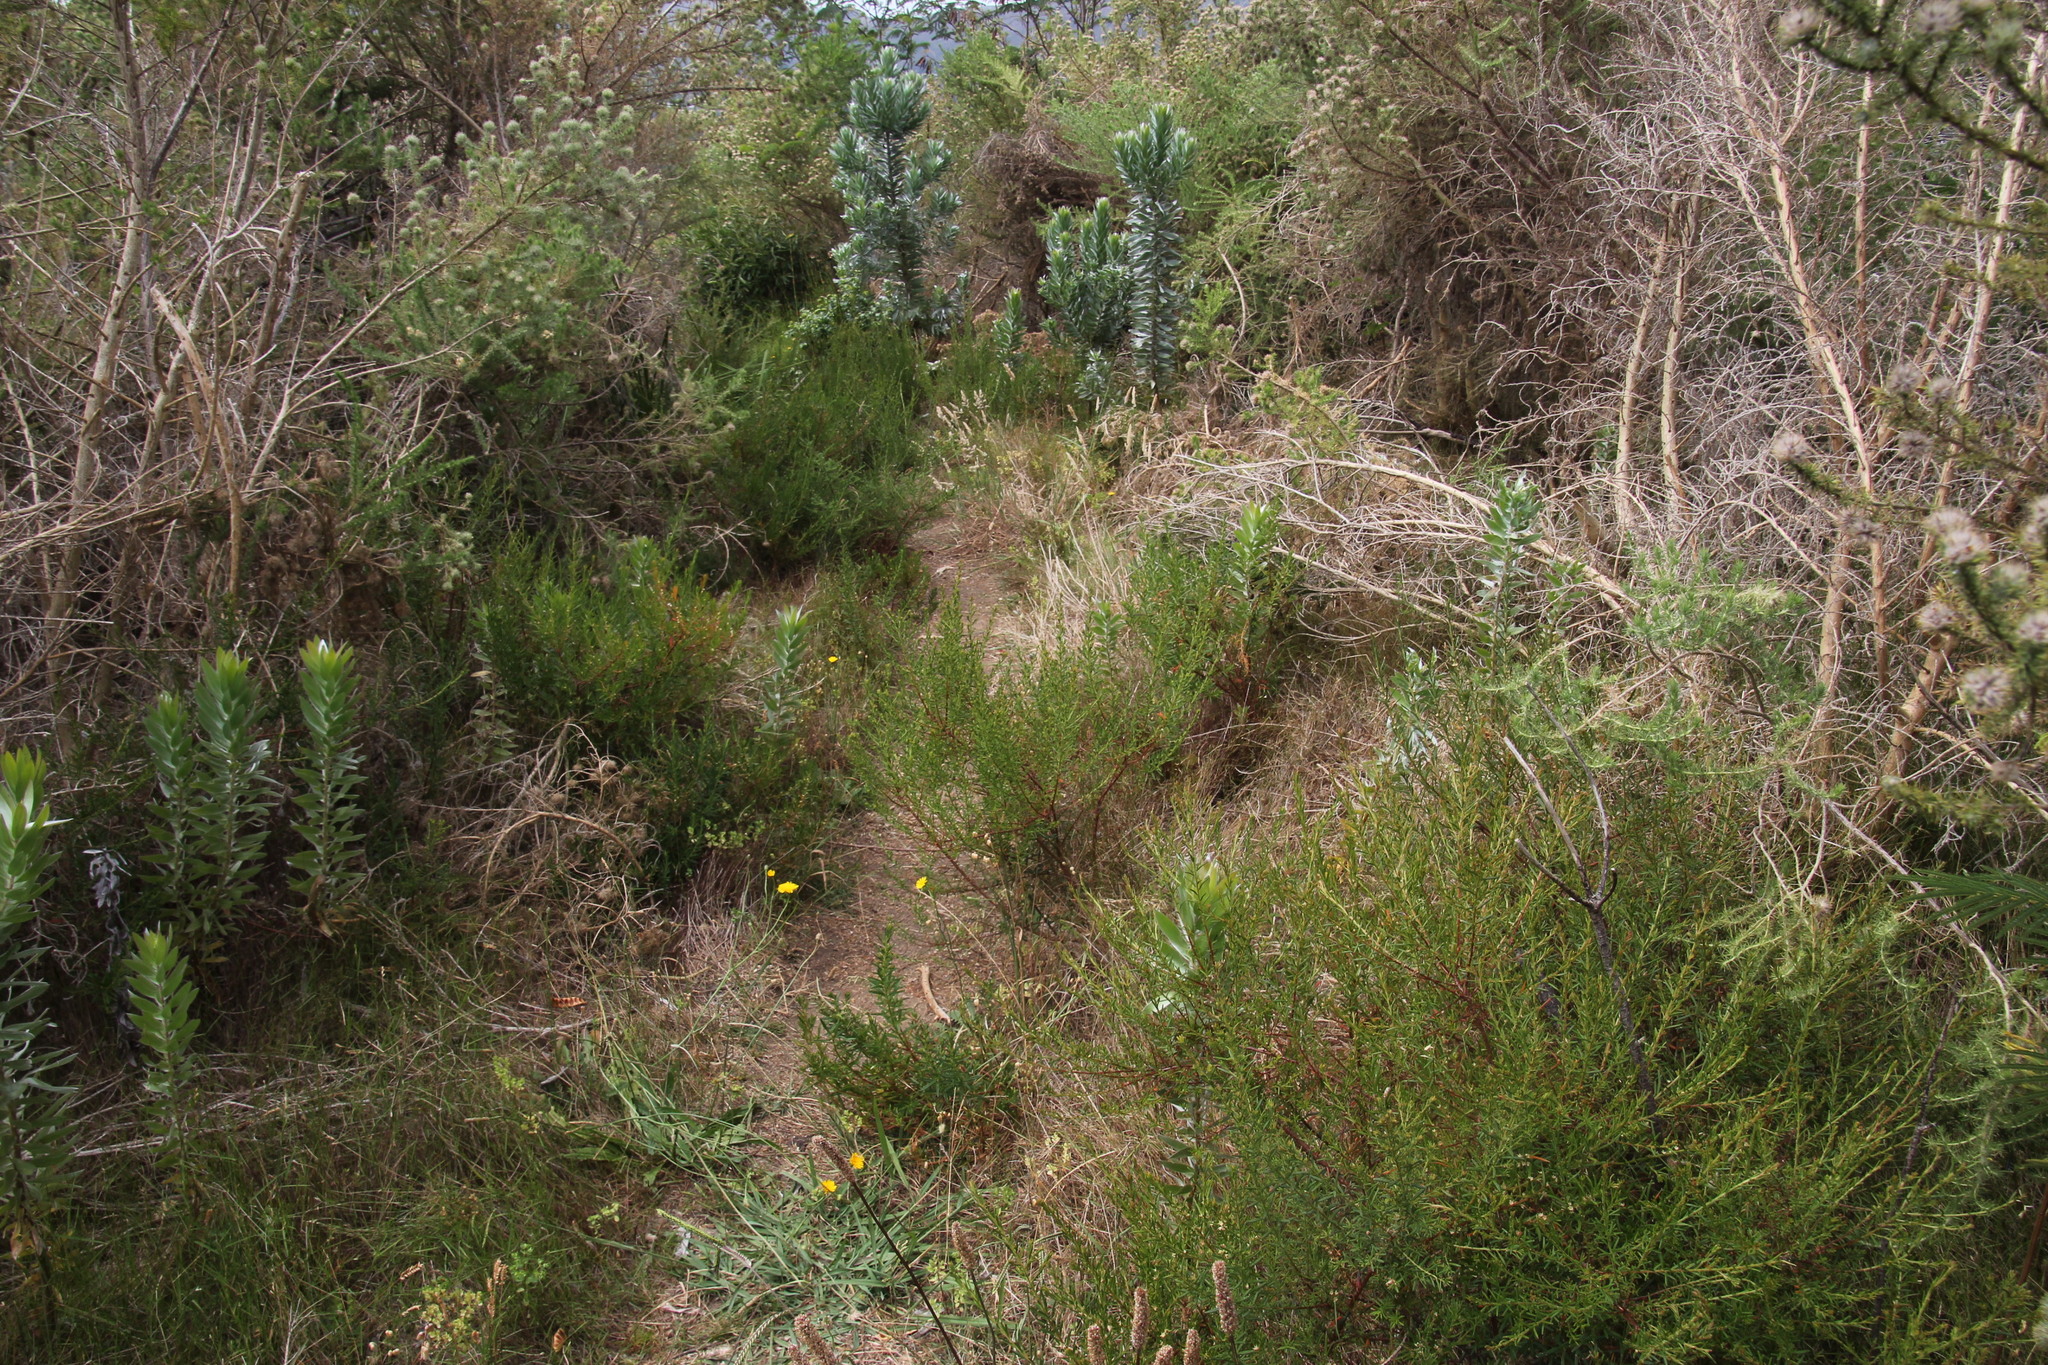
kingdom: Plantae
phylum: Tracheophyta
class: Magnoliopsida
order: Proteales
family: Proteaceae
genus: Leucadendron
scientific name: Leucadendron argenteum
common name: Cape silver tree
